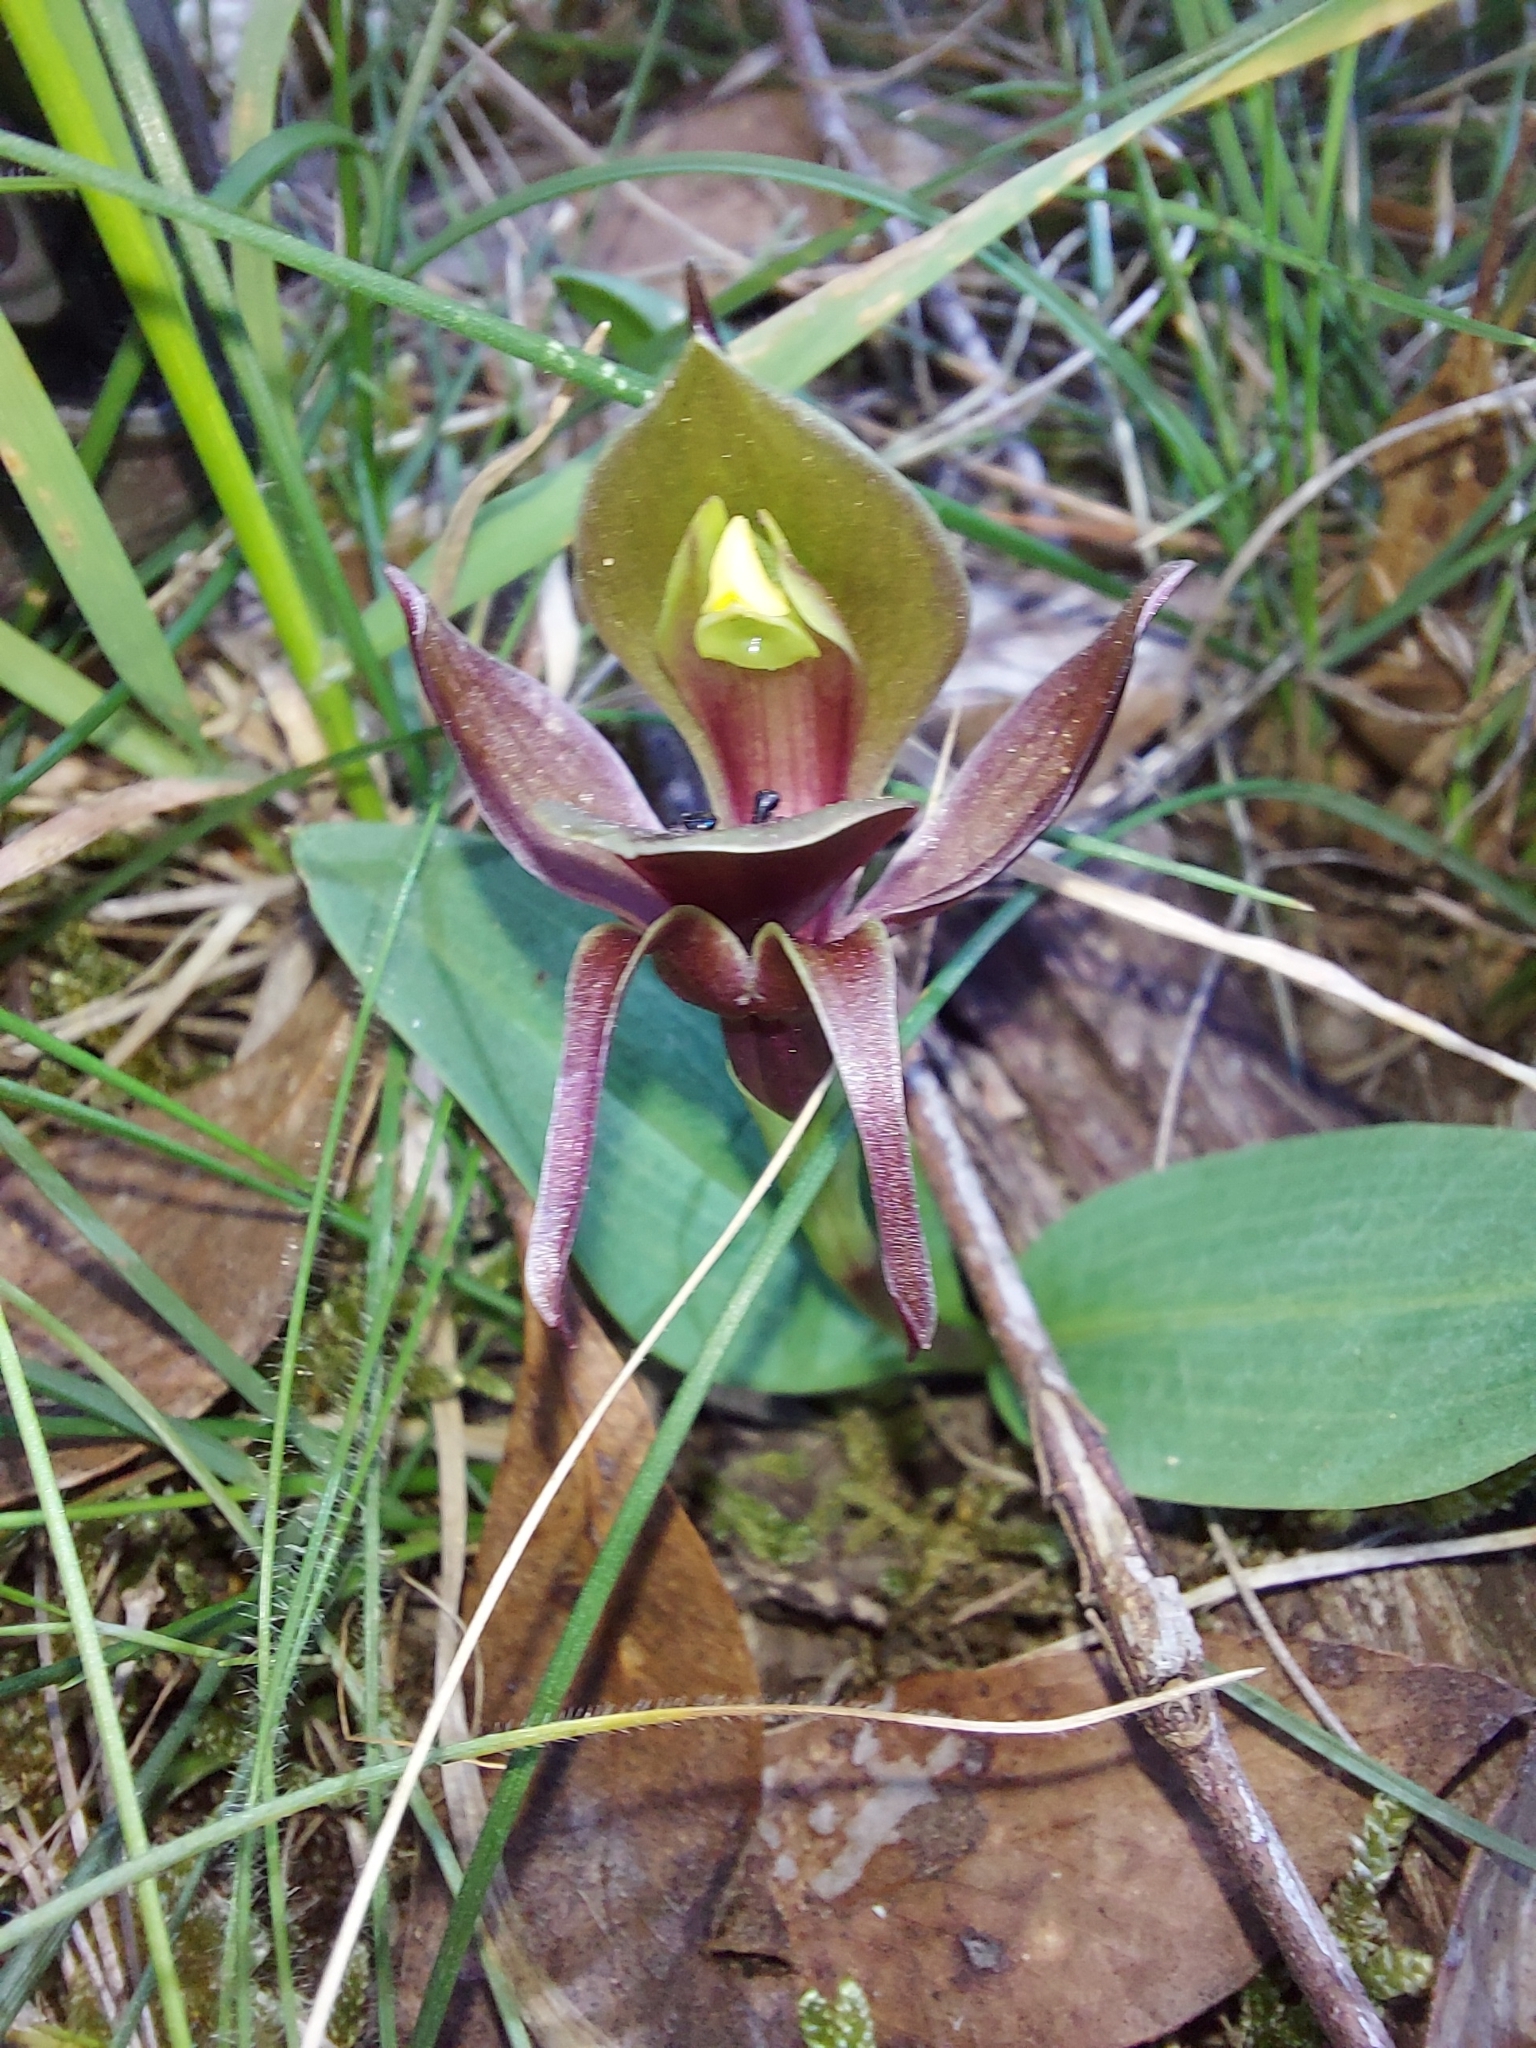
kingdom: Plantae
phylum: Tracheophyta
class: Liliopsida
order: Asparagales
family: Orchidaceae
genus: Chiloglottis
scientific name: Chiloglottis valida
